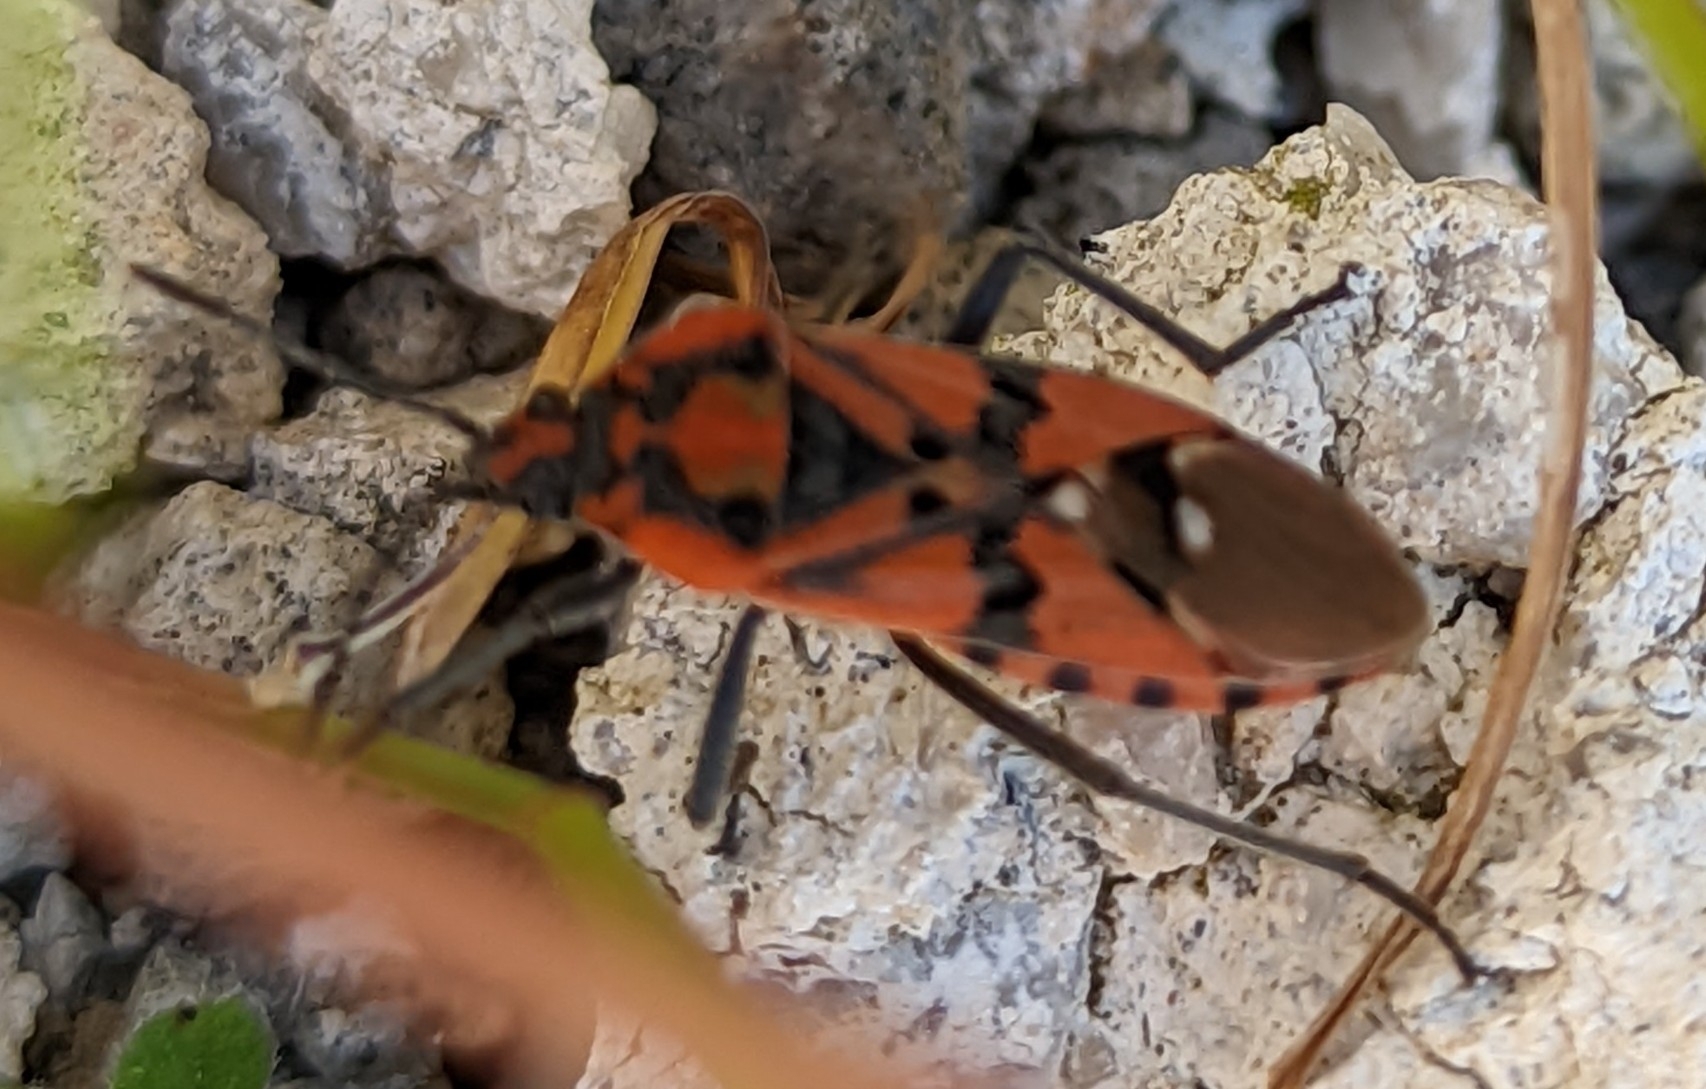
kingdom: Animalia
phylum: Arthropoda
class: Insecta
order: Hemiptera
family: Lygaeidae
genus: Spilostethus
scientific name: Spilostethus pandurus
